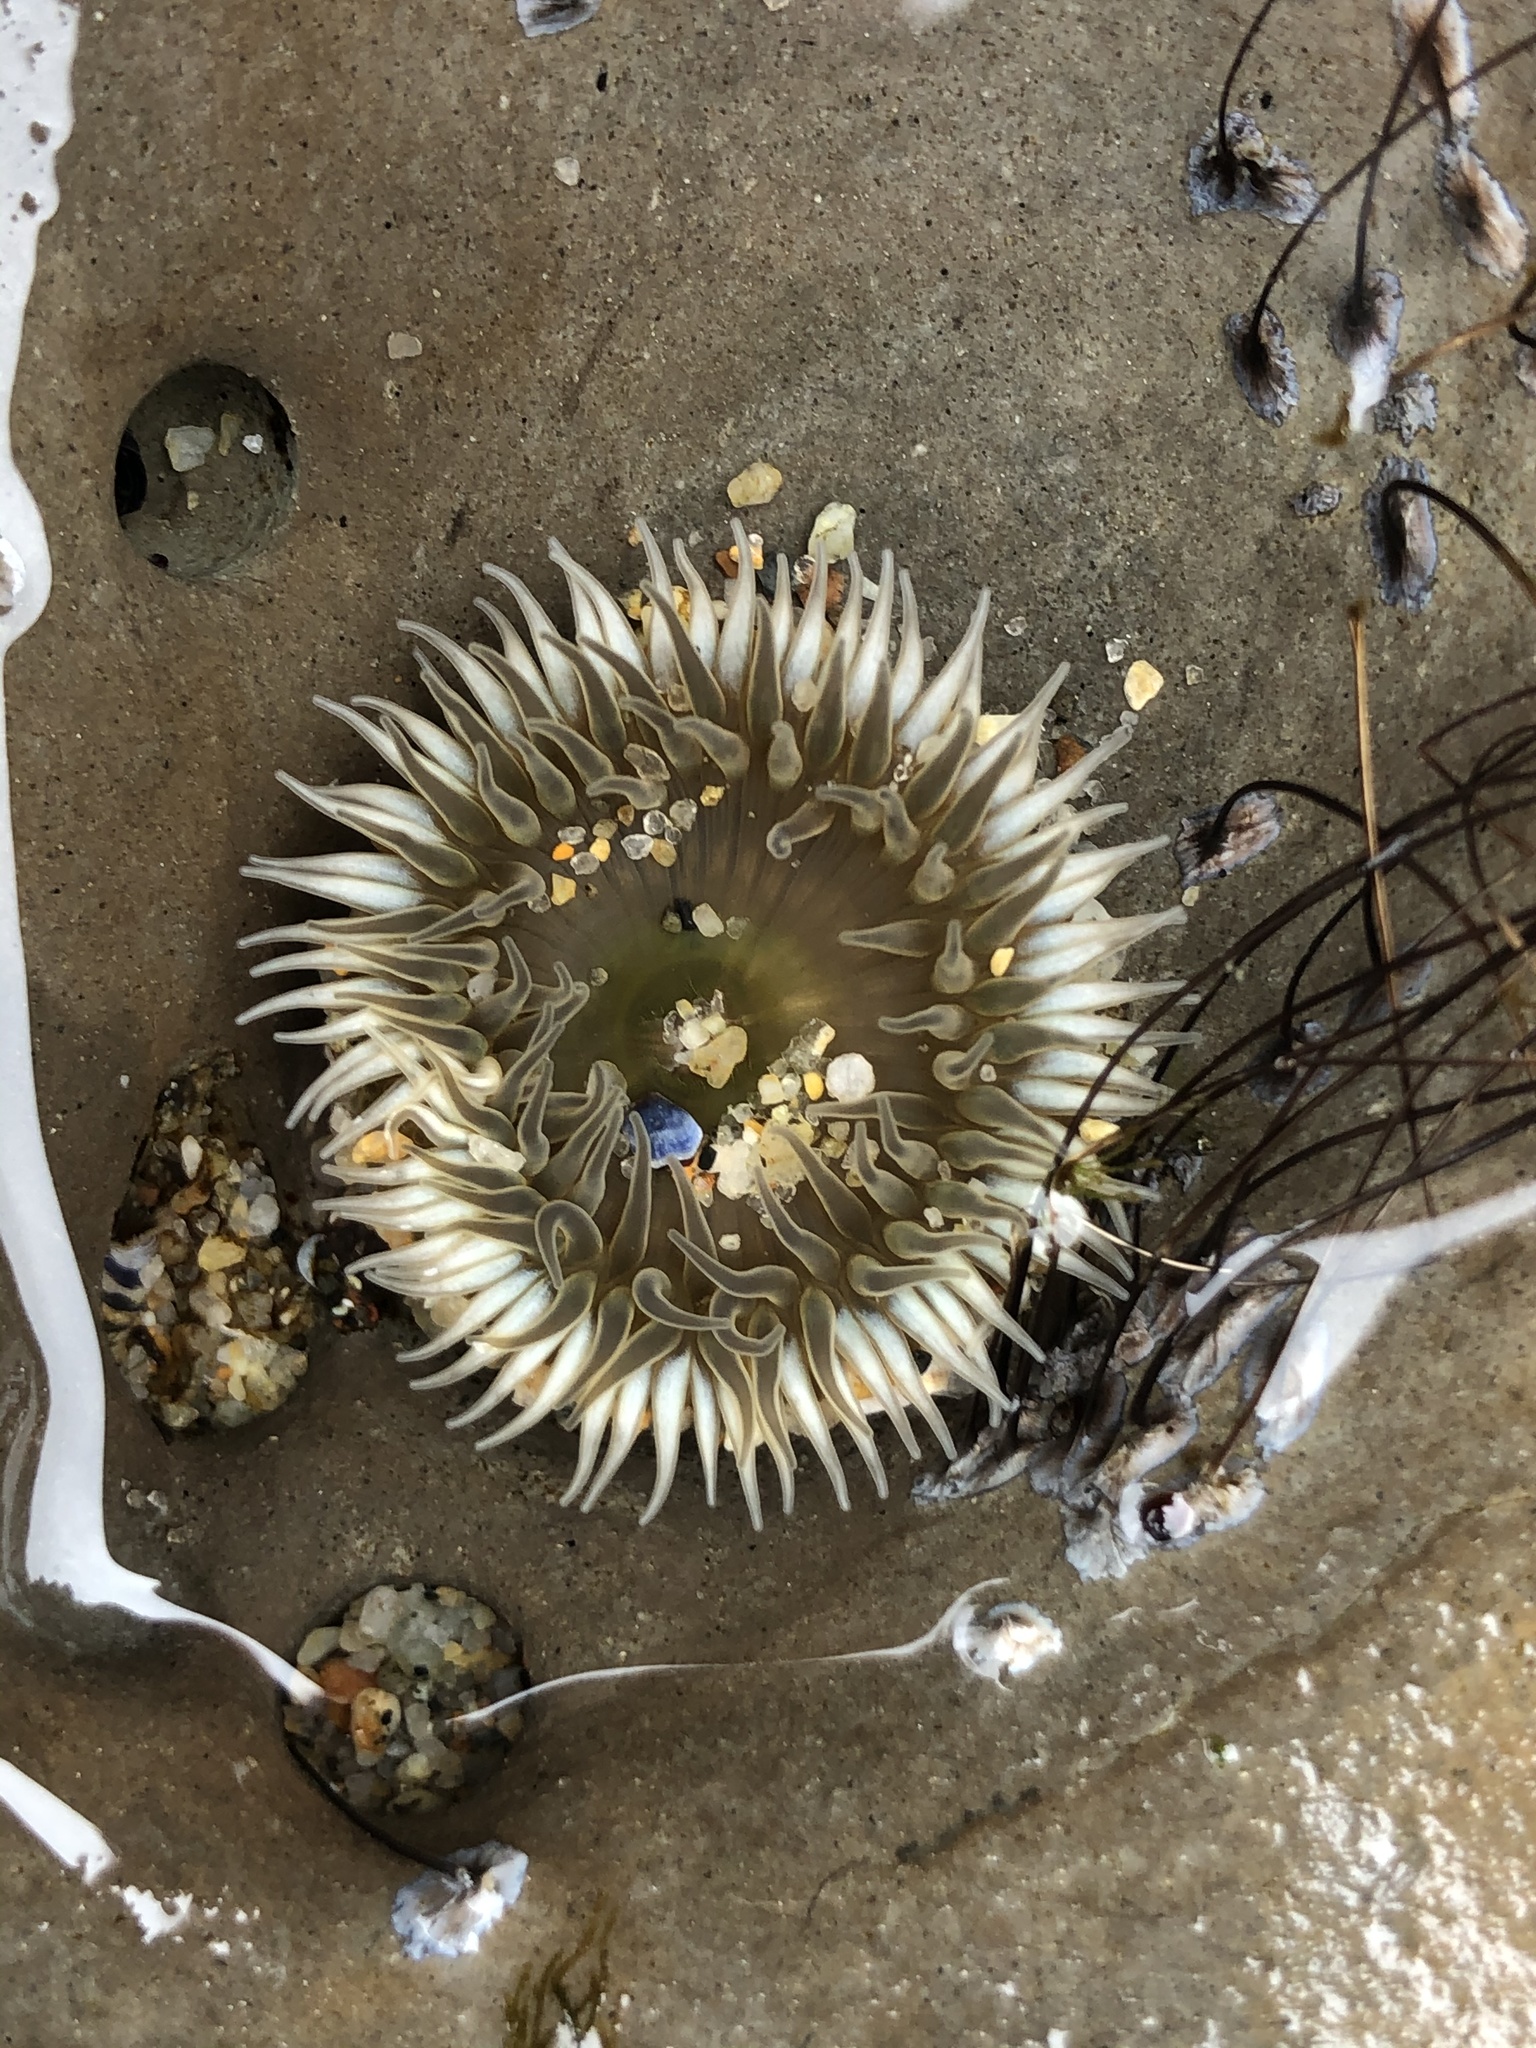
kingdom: Animalia
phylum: Cnidaria
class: Anthozoa
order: Actiniaria
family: Actiniidae
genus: Anthopleura
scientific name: Anthopleura xanthogrammica
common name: Giant green anemone
